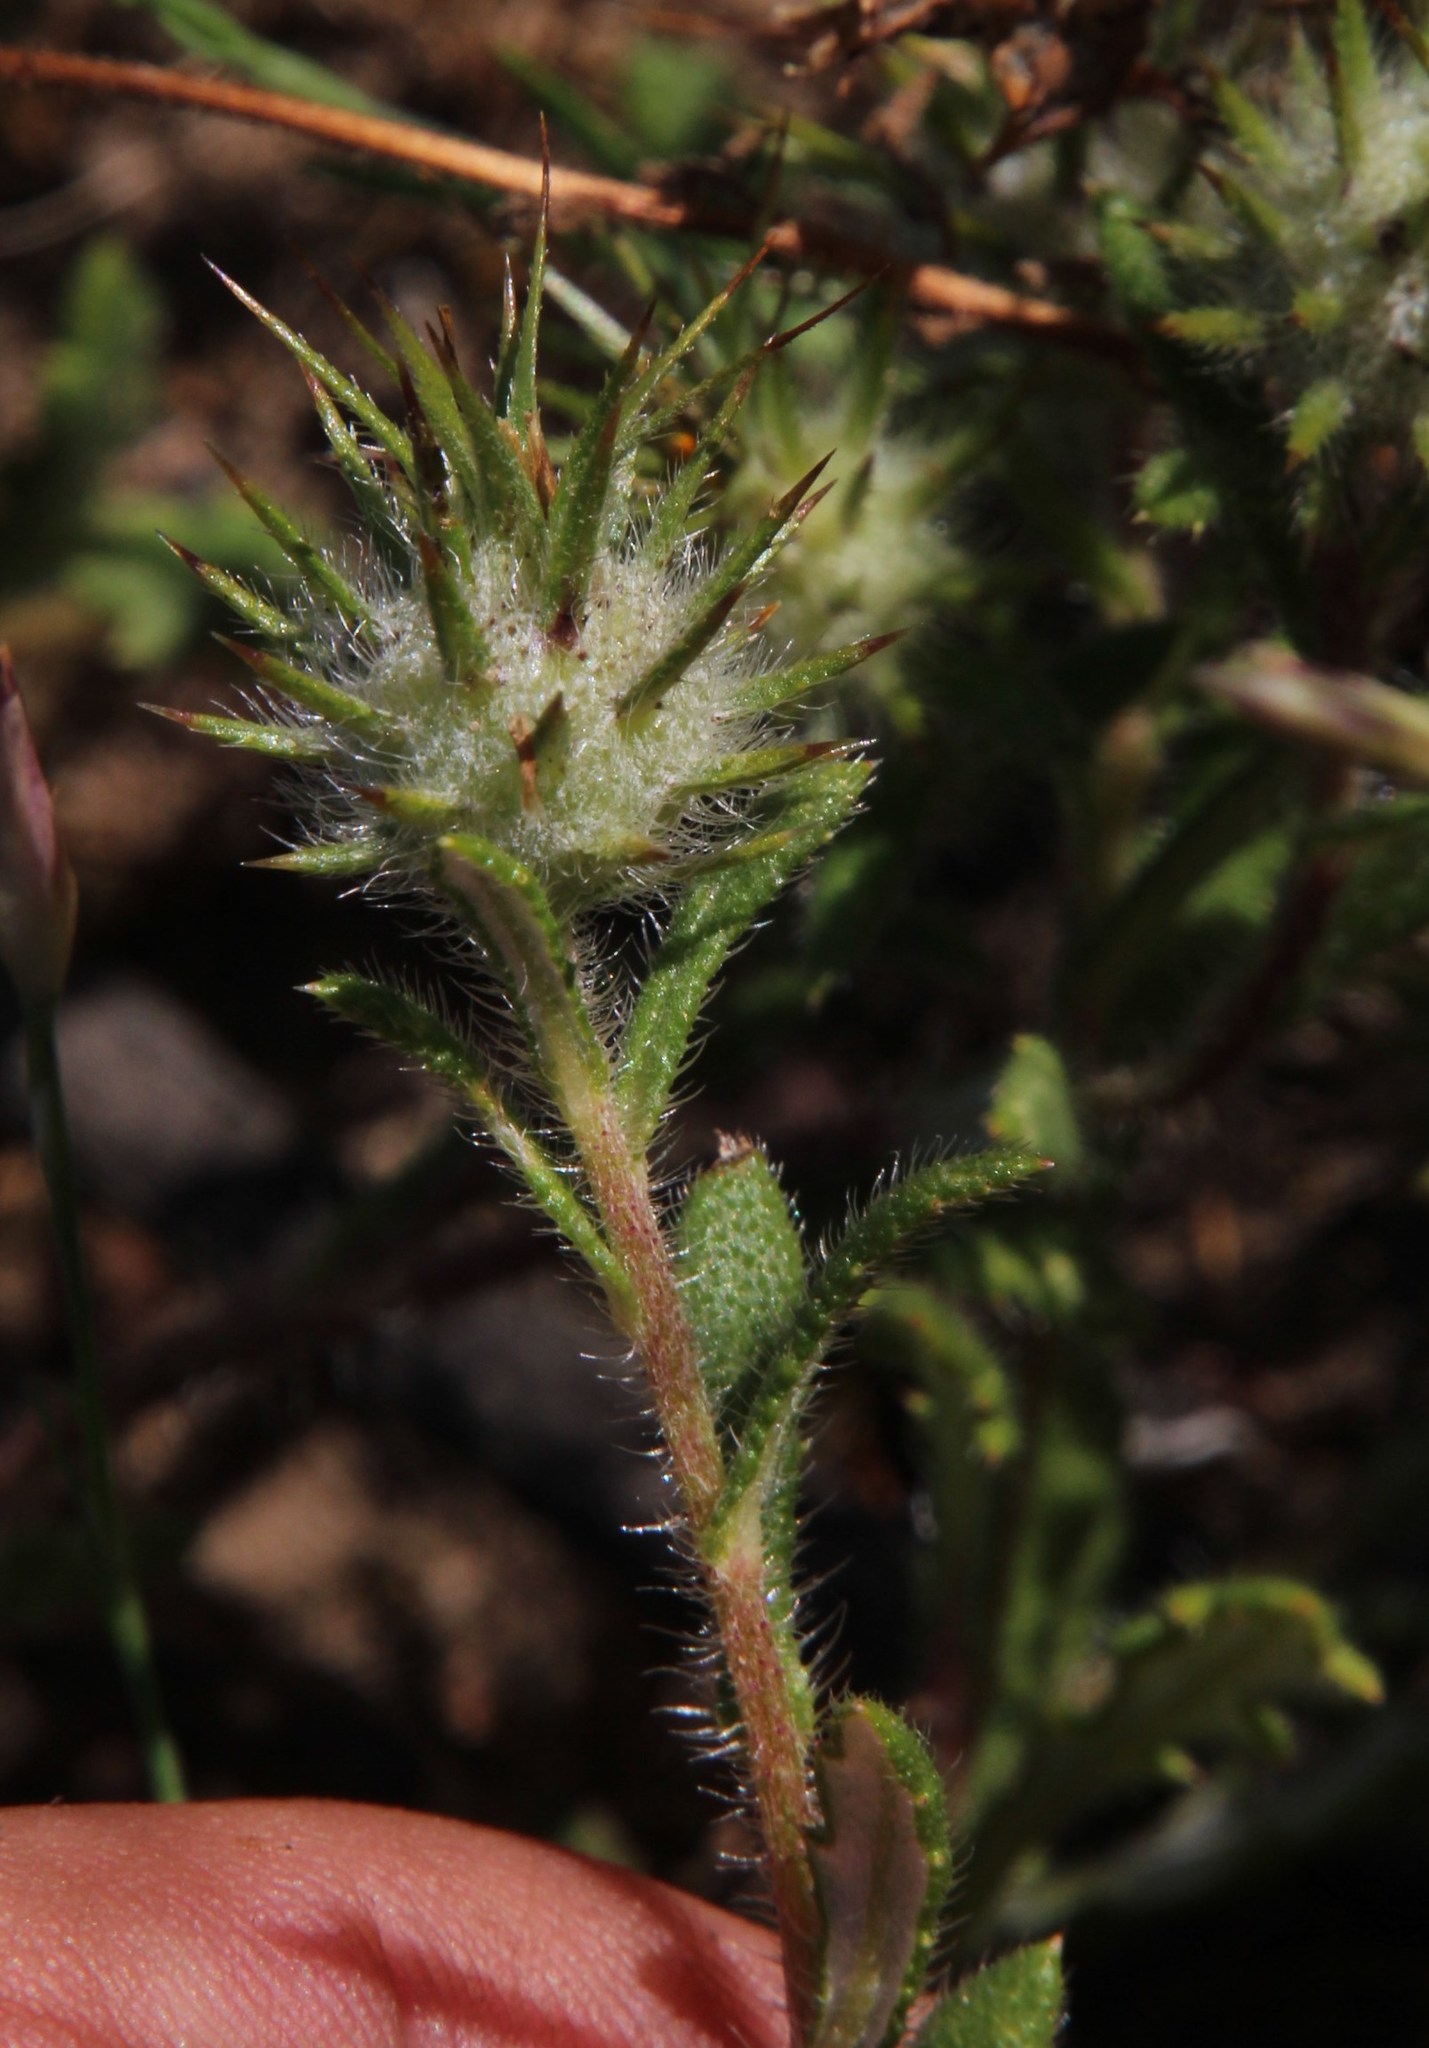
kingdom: Plantae
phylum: Tracheophyta
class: Magnoliopsida
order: Asterales
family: Asteraceae
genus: Gorteria
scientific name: Gorteria personata
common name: Gorteria
